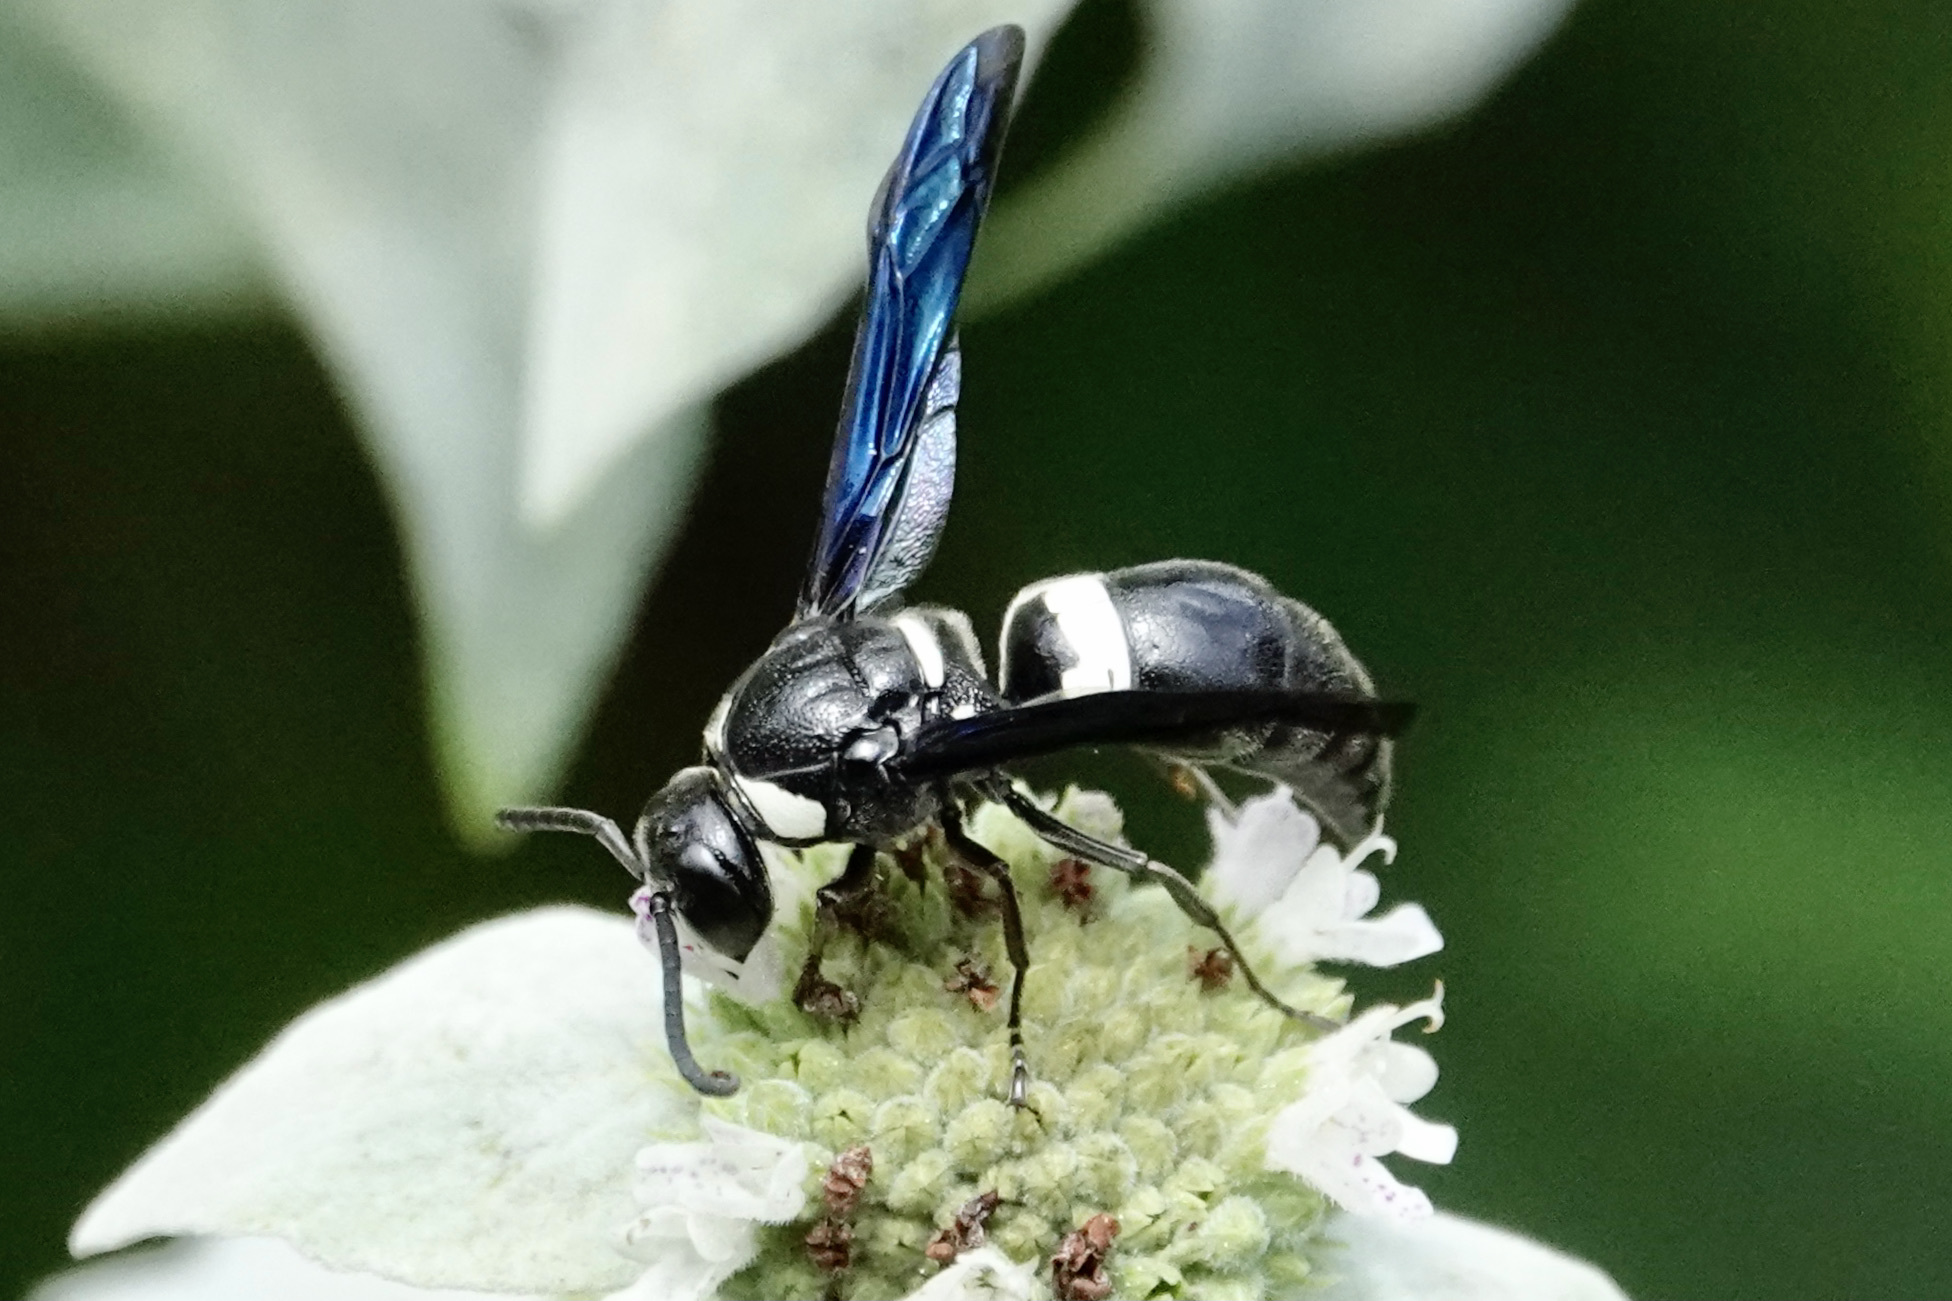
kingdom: Animalia
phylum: Arthropoda
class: Insecta
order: Hymenoptera
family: Eumenidae
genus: Monobia
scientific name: Monobia quadridens
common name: Four-toothed mason wasp
